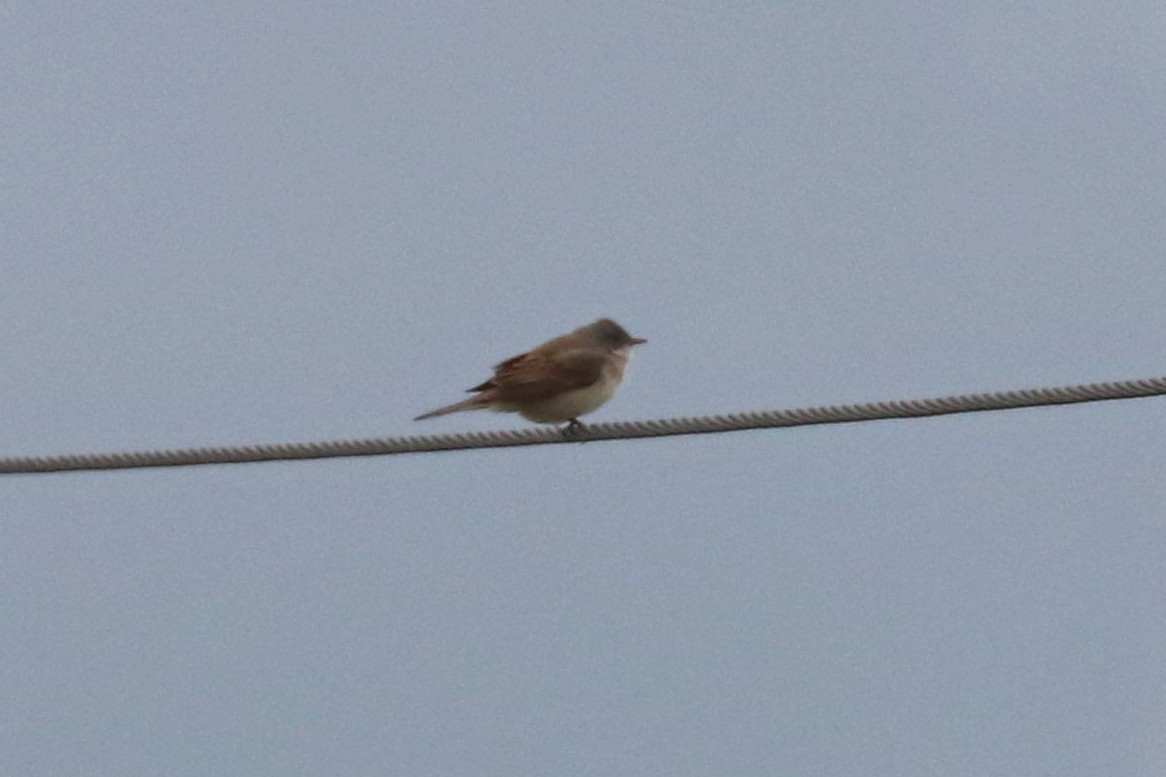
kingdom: Animalia
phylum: Chordata
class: Aves
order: Passeriformes
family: Sylviidae
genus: Sylvia
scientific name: Sylvia communis
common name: Common whitethroat
